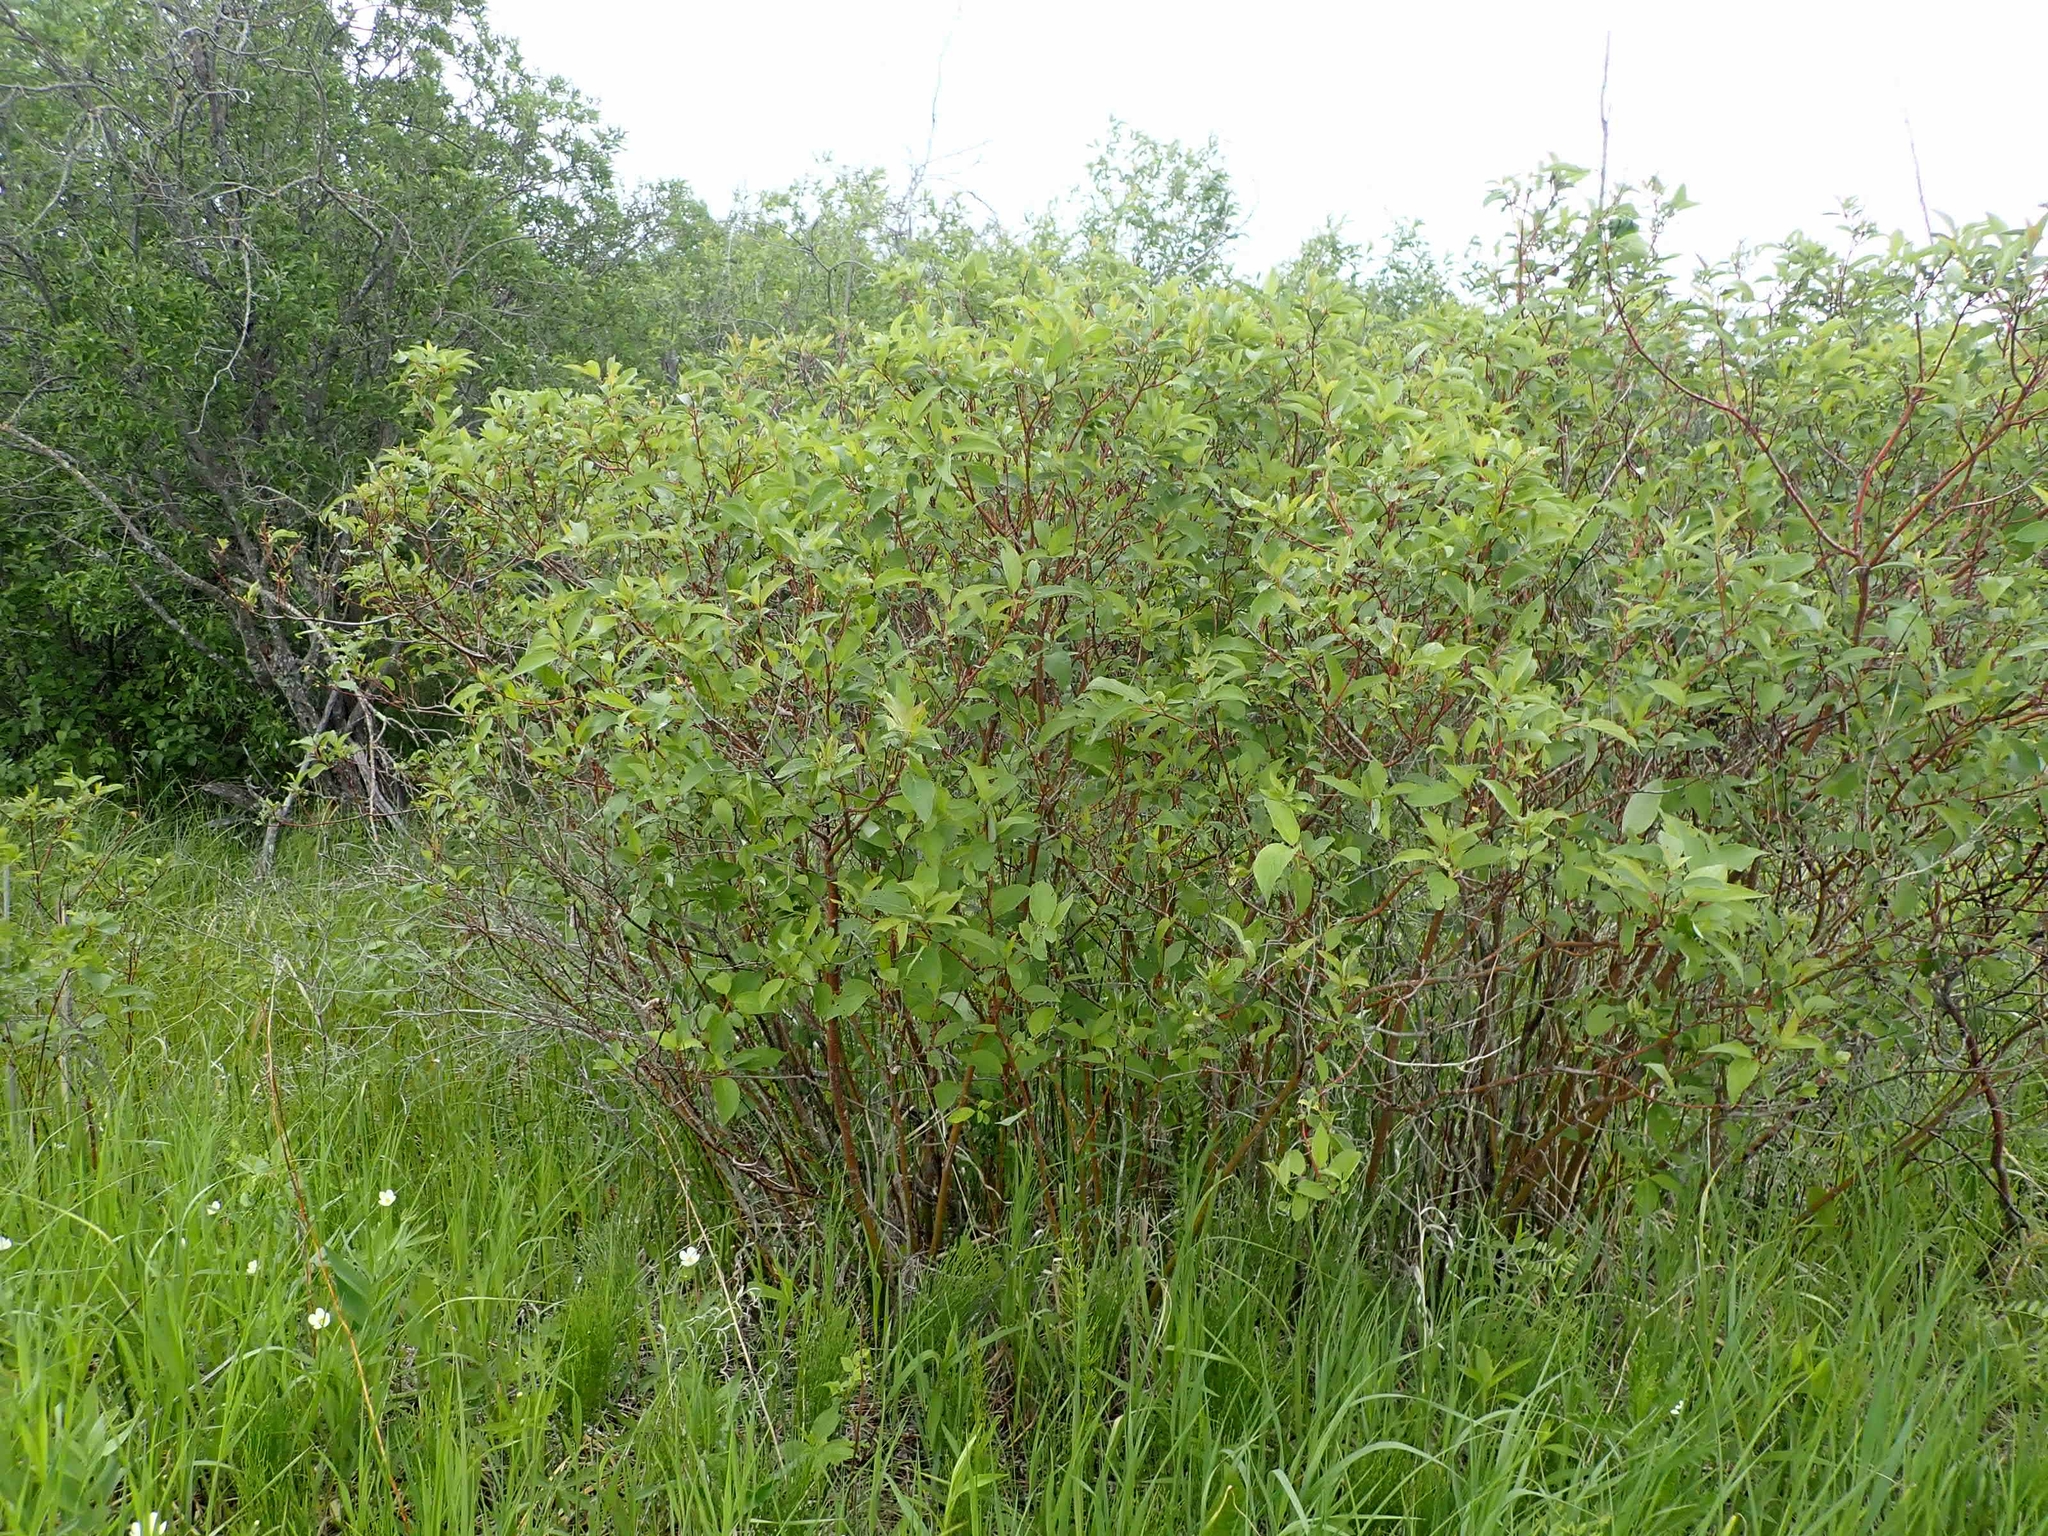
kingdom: Plantae
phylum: Tracheophyta
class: Magnoliopsida
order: Cornales
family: Cornaceae
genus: Cornus
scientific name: Cornus sericea
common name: Red-osier dogwood
